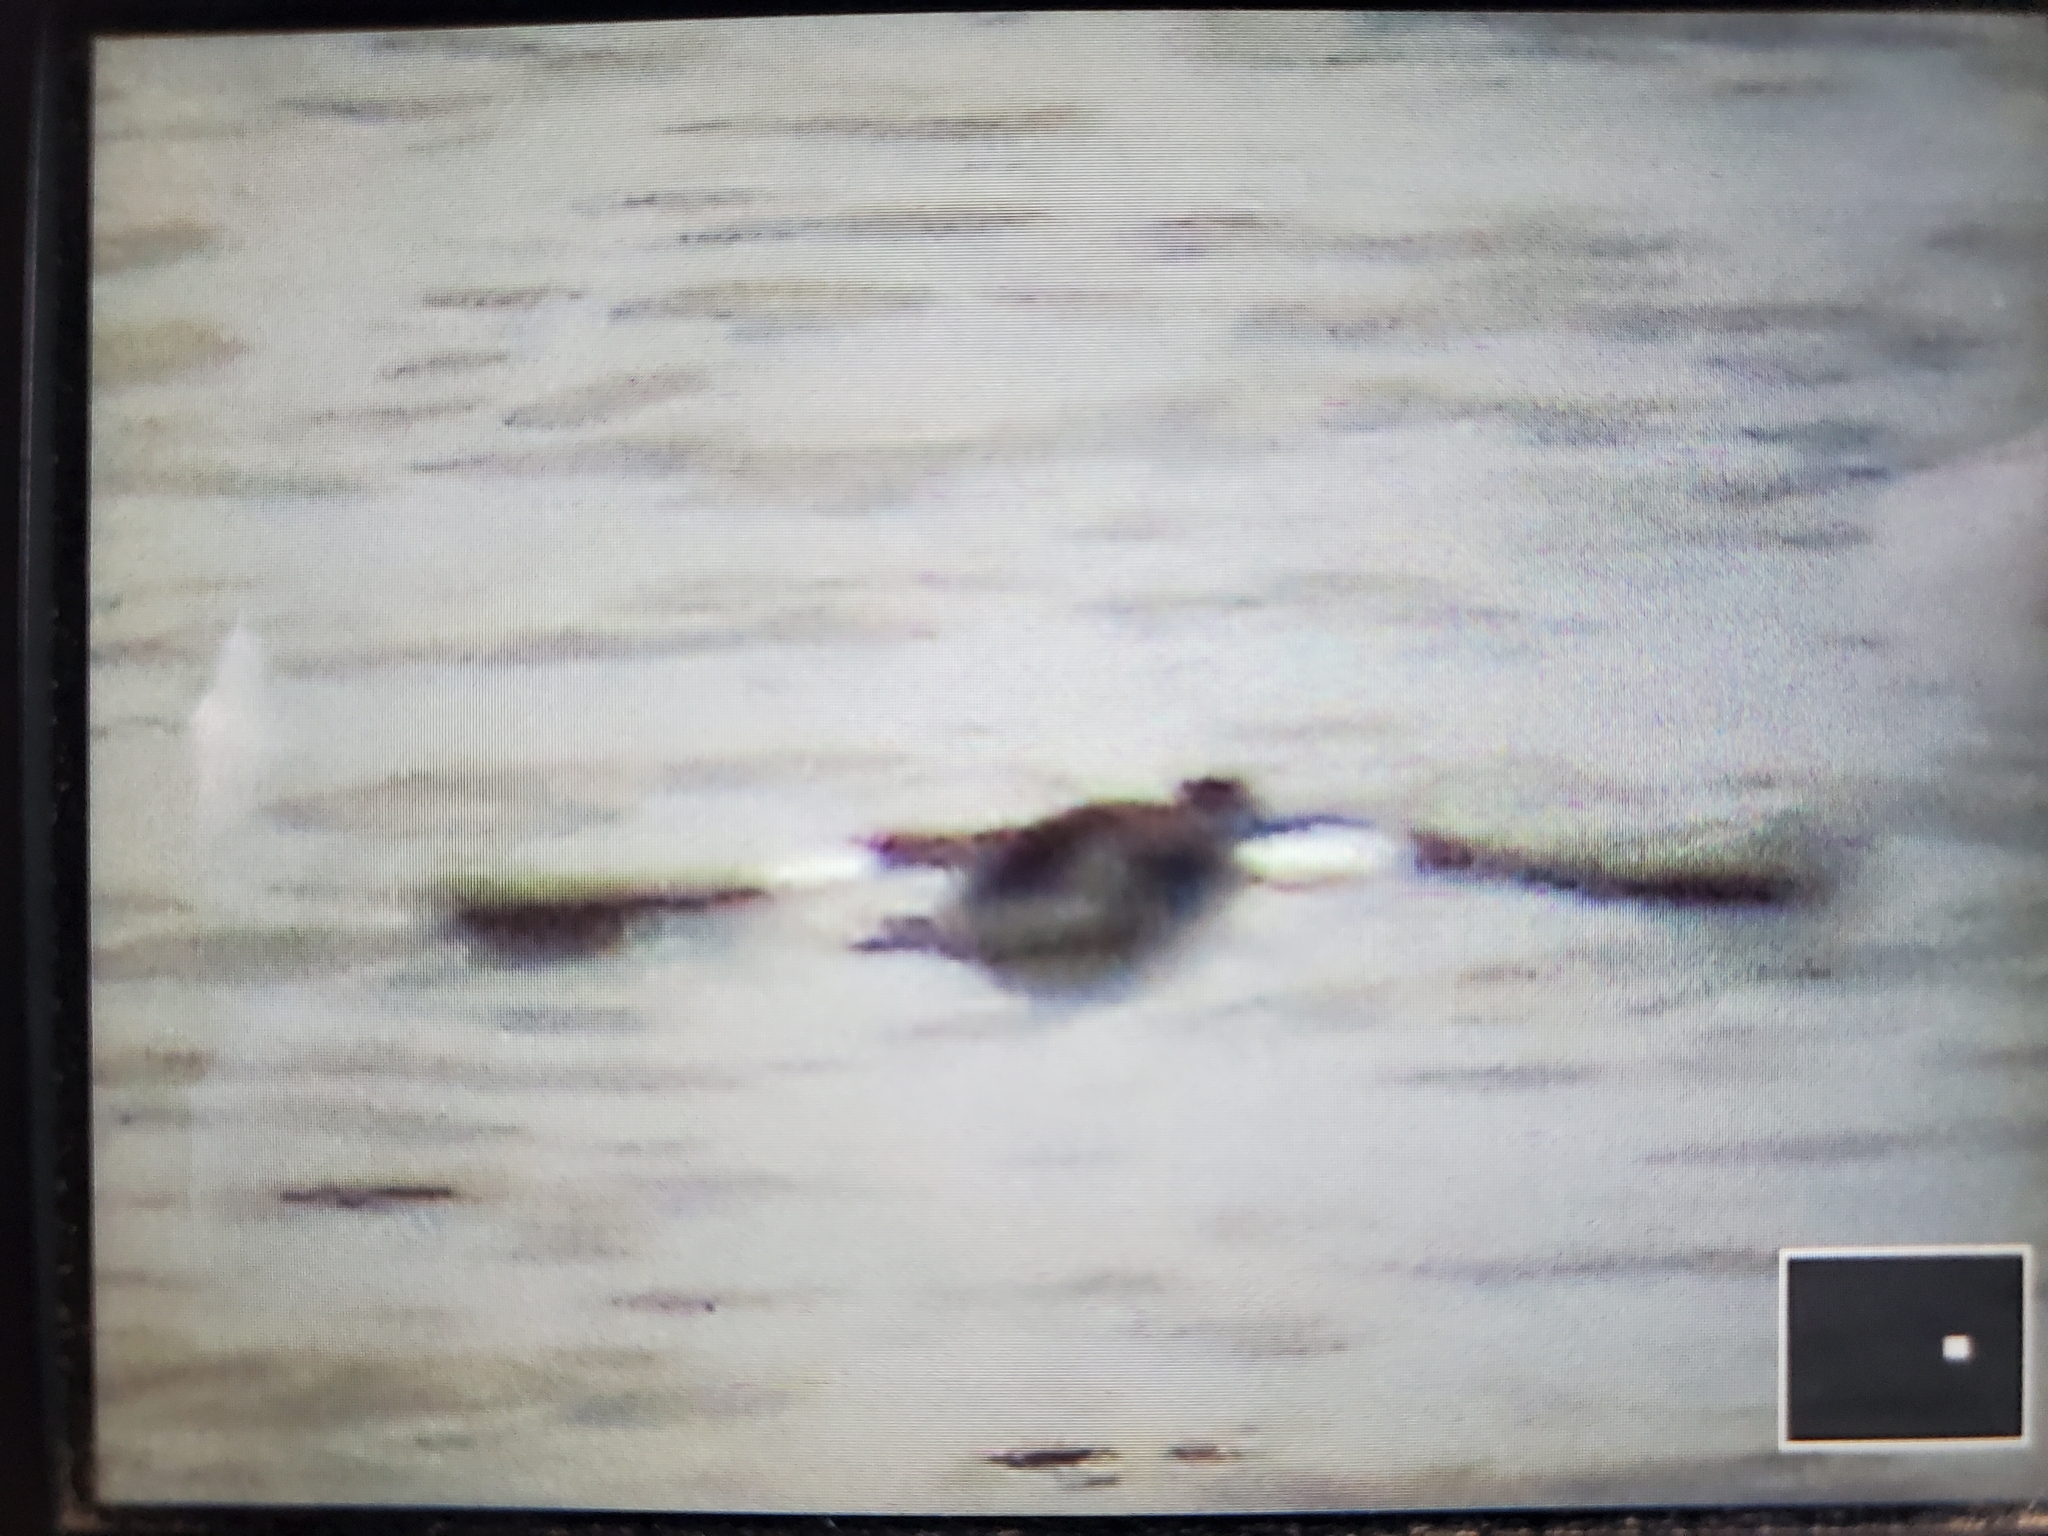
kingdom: Animalia
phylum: Chordata
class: Aves
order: Anseriformes
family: Anatidae
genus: Bucephala
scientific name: Bucephala albeola
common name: Bufflehead
